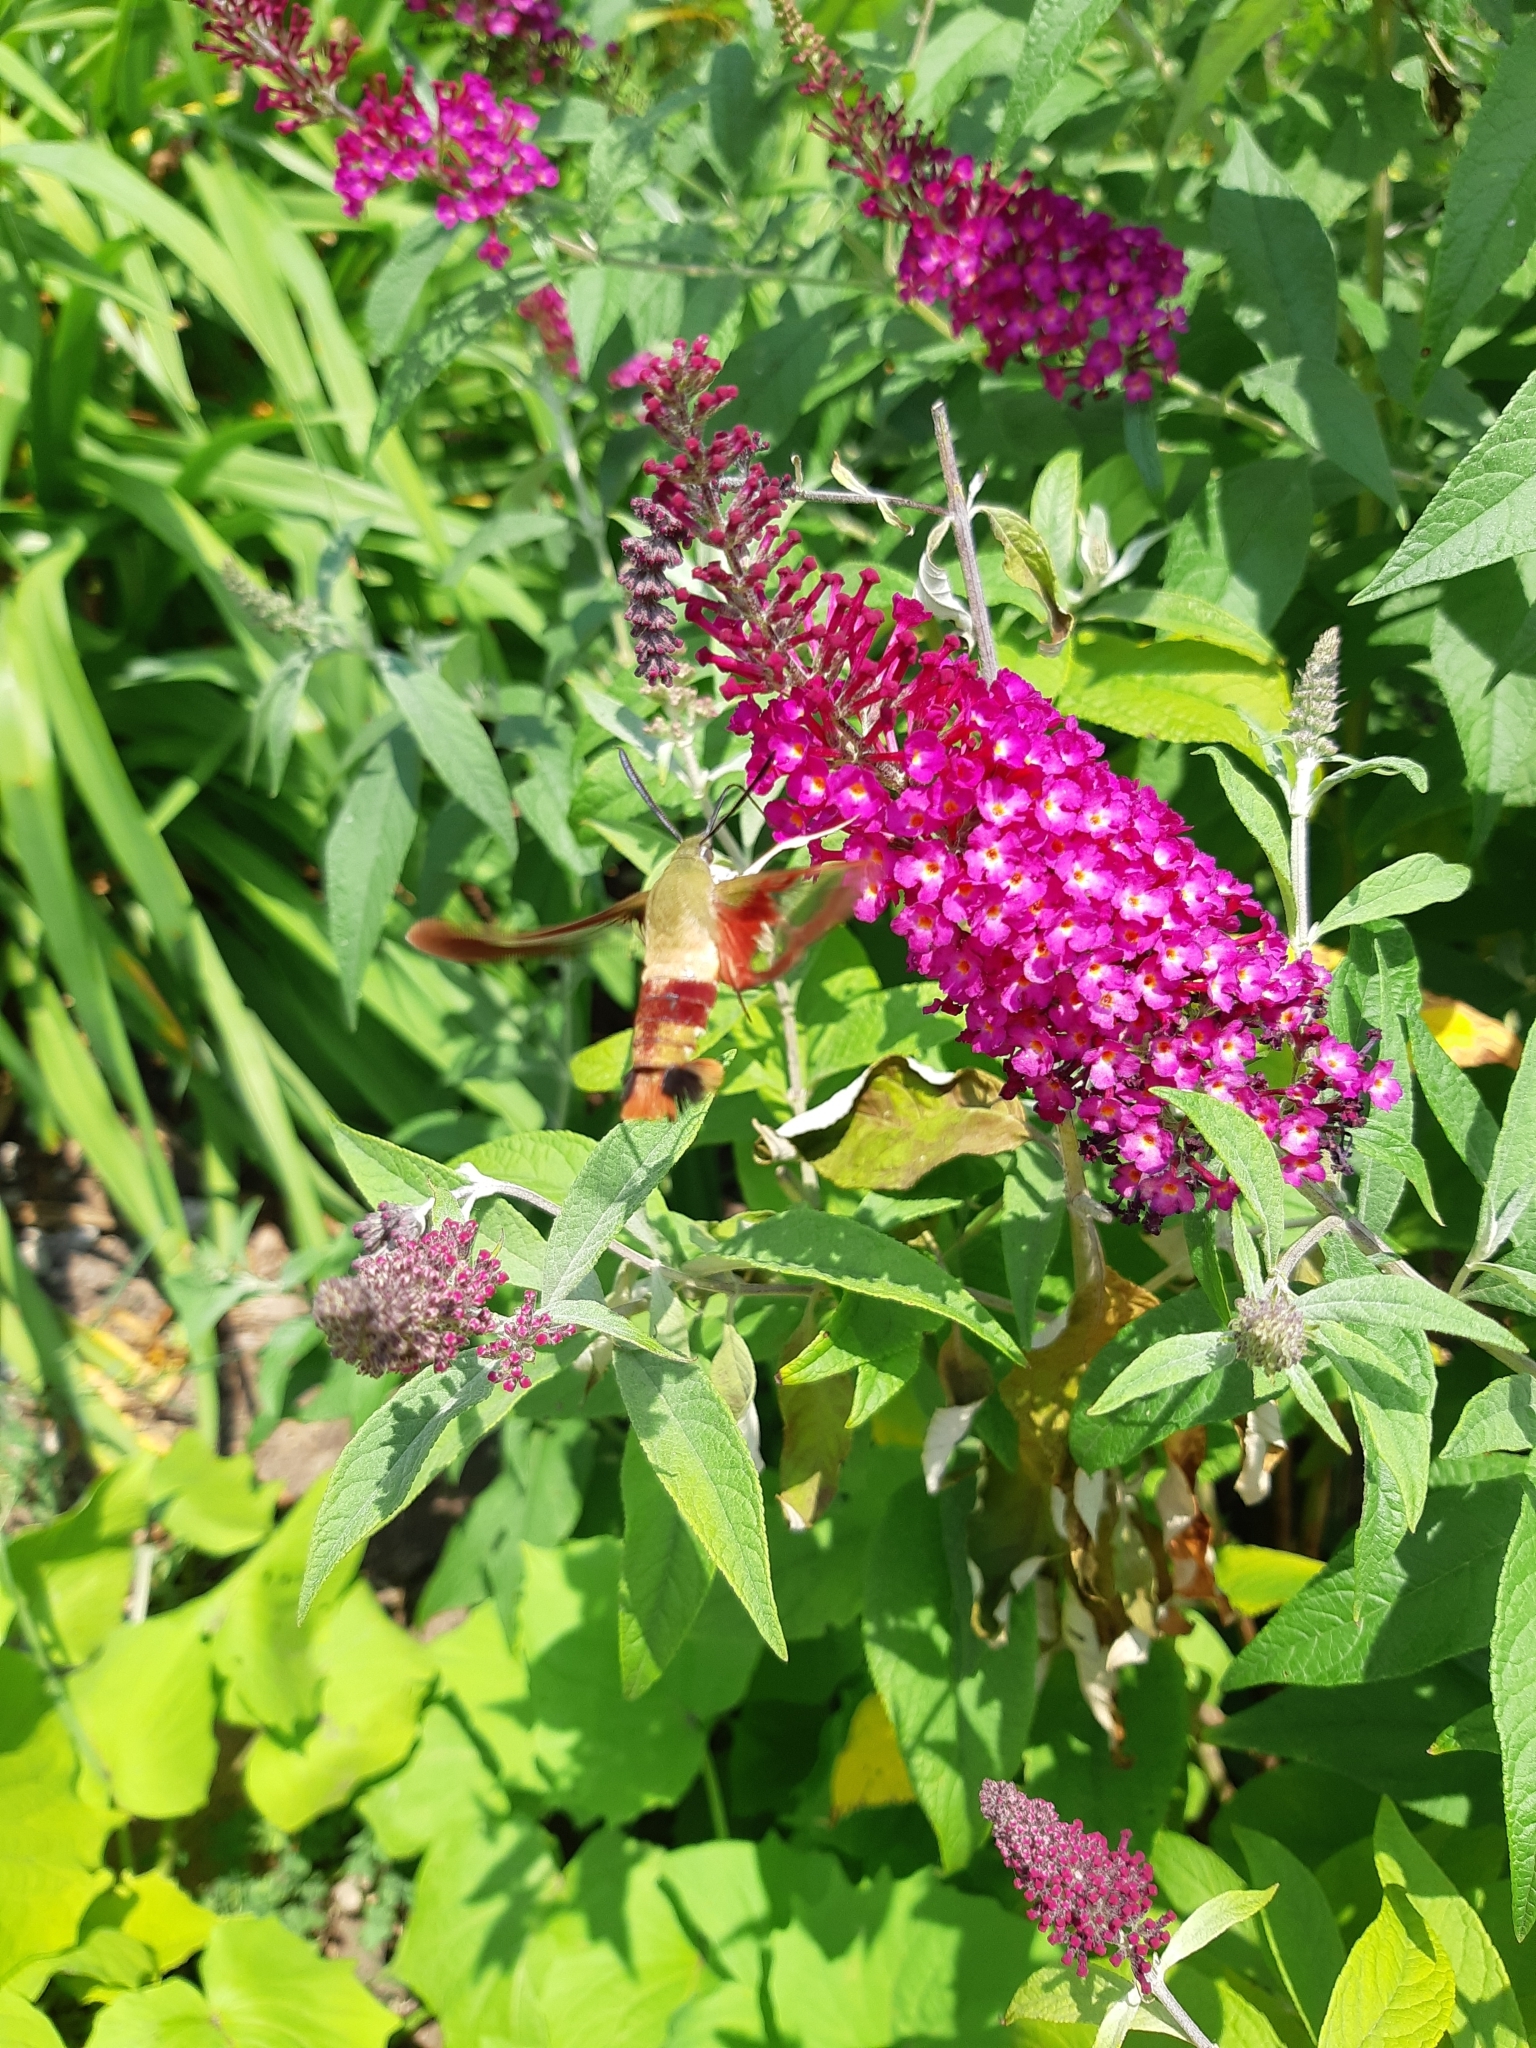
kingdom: Animalia
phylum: Arthropoda
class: Insecta
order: Lepidoptera
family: Sphingidae
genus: Hemaris
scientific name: Hemaris thysbe
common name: Common clear-wing
